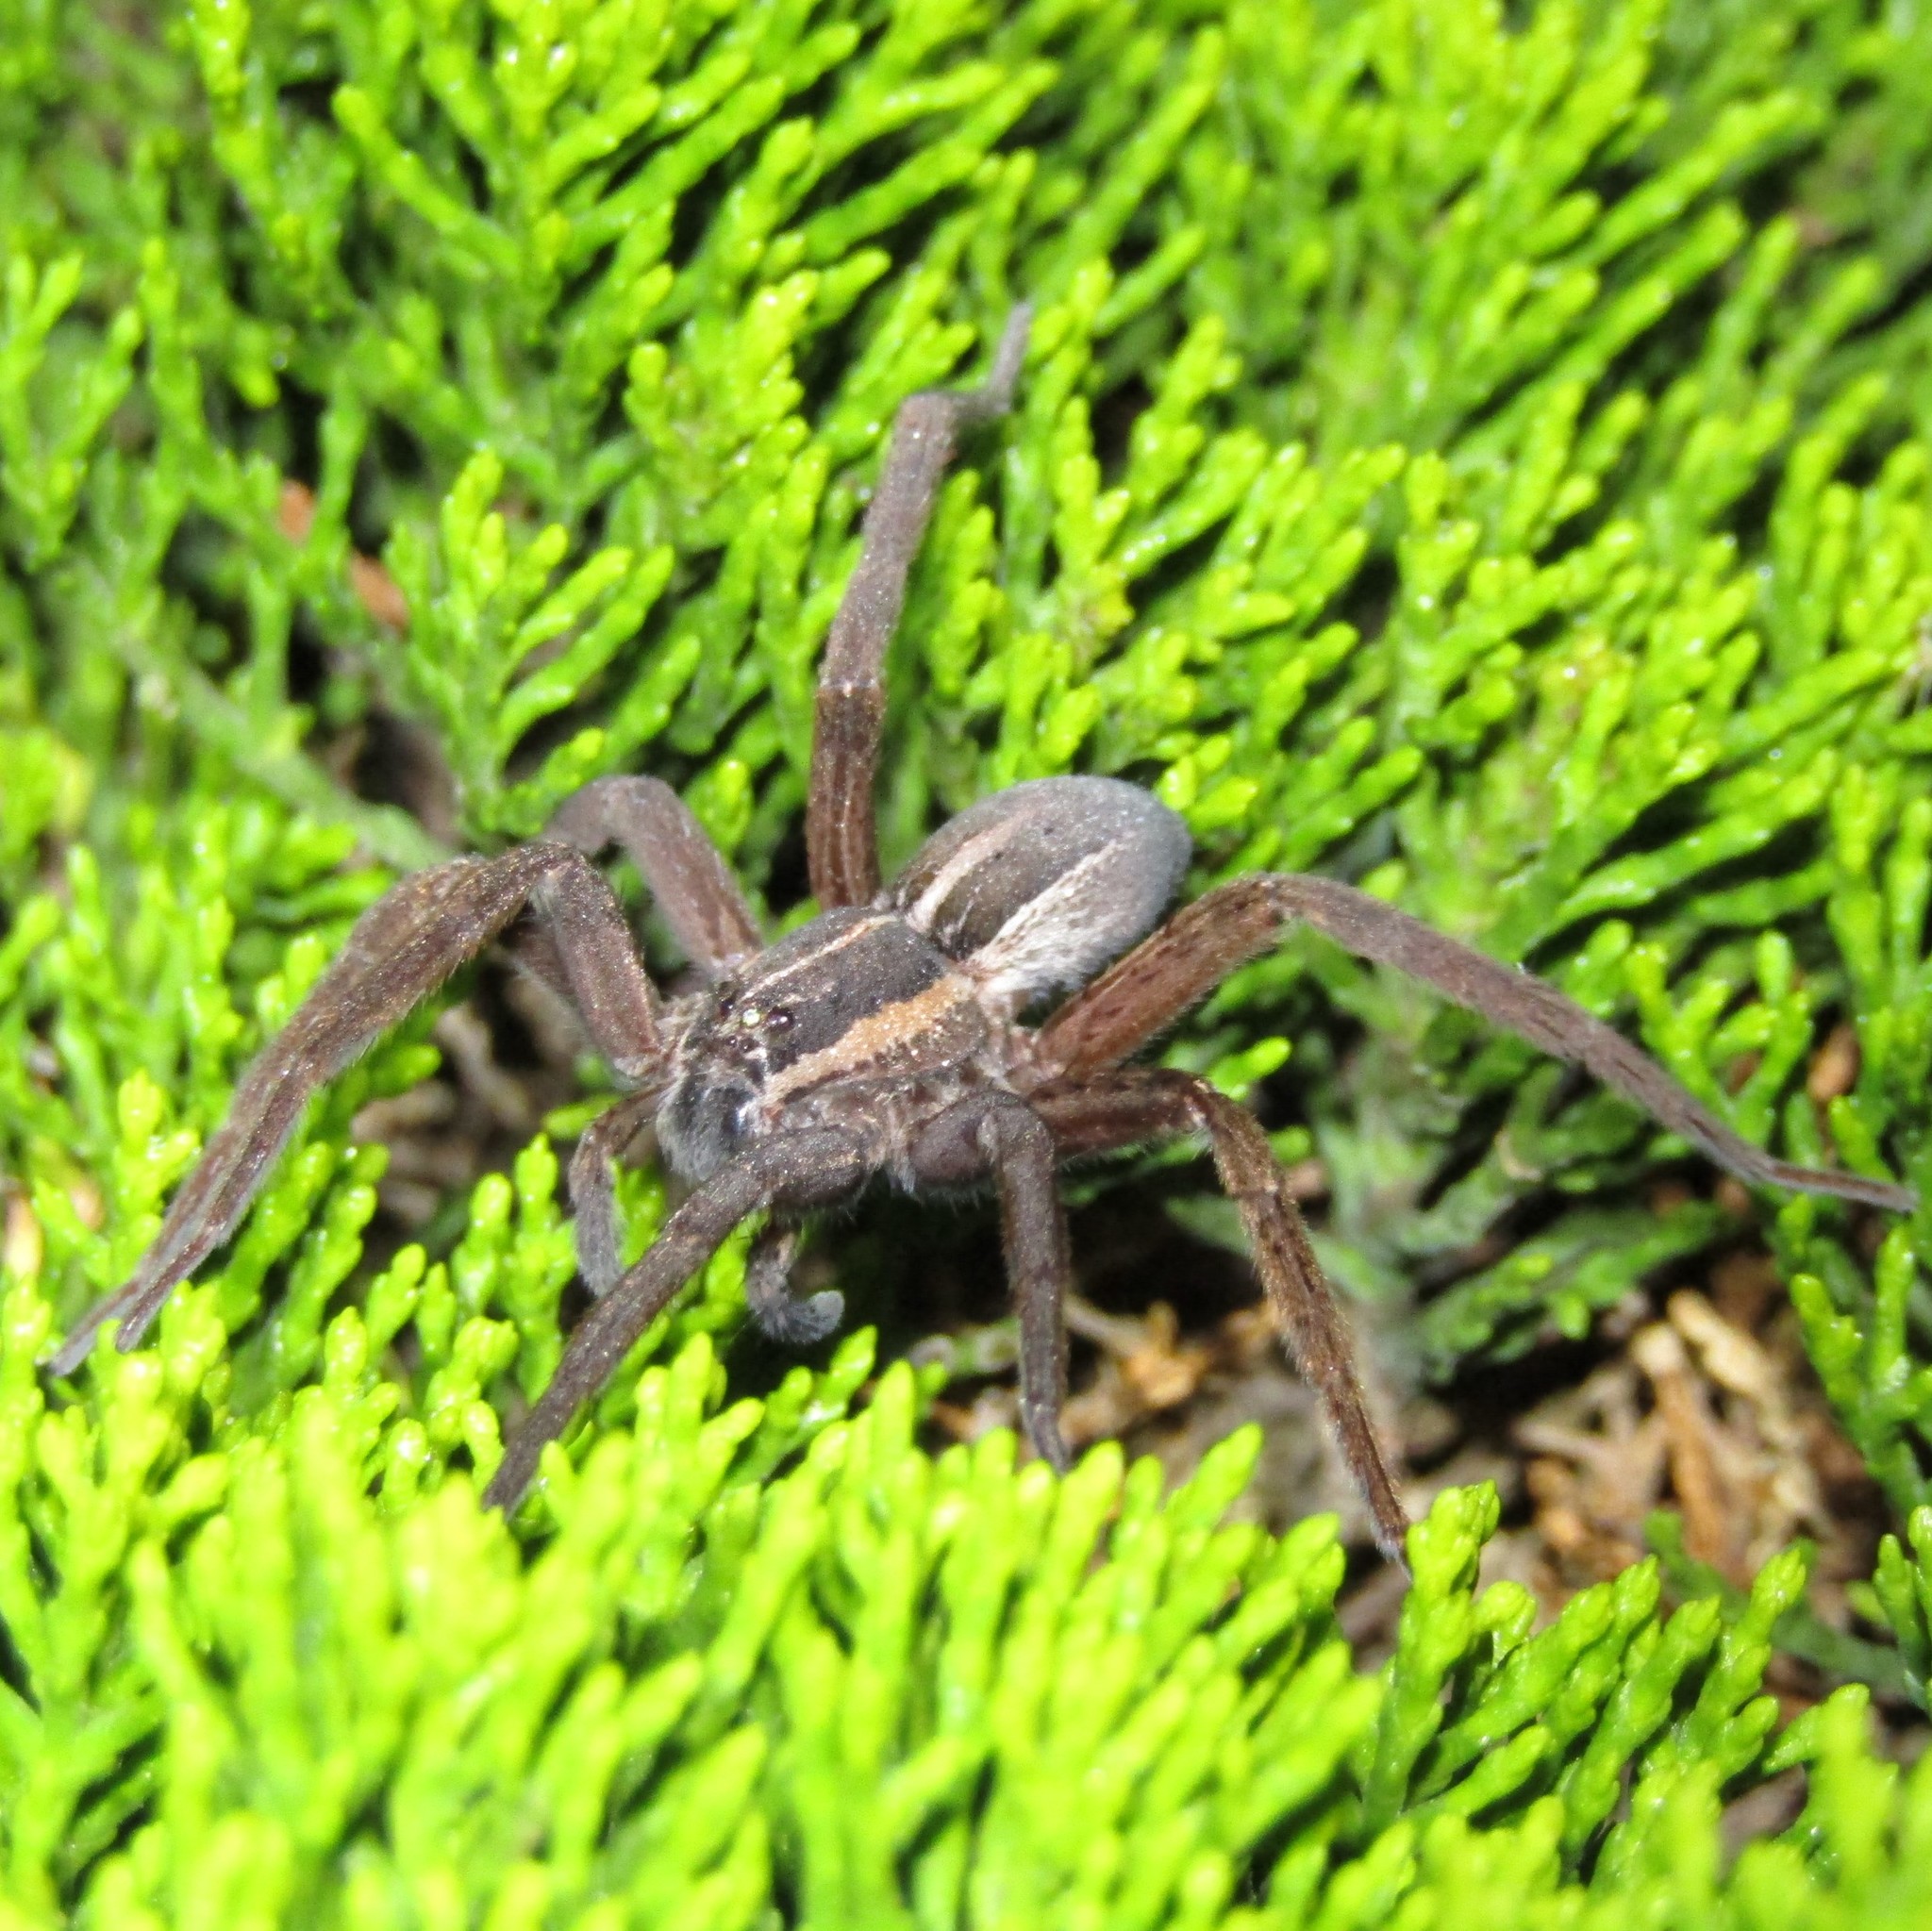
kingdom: Animalia
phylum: Arthropoda
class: Arachnida
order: Araneae
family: Pisauridae
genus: Dolomedes
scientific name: Dolomedes minor
